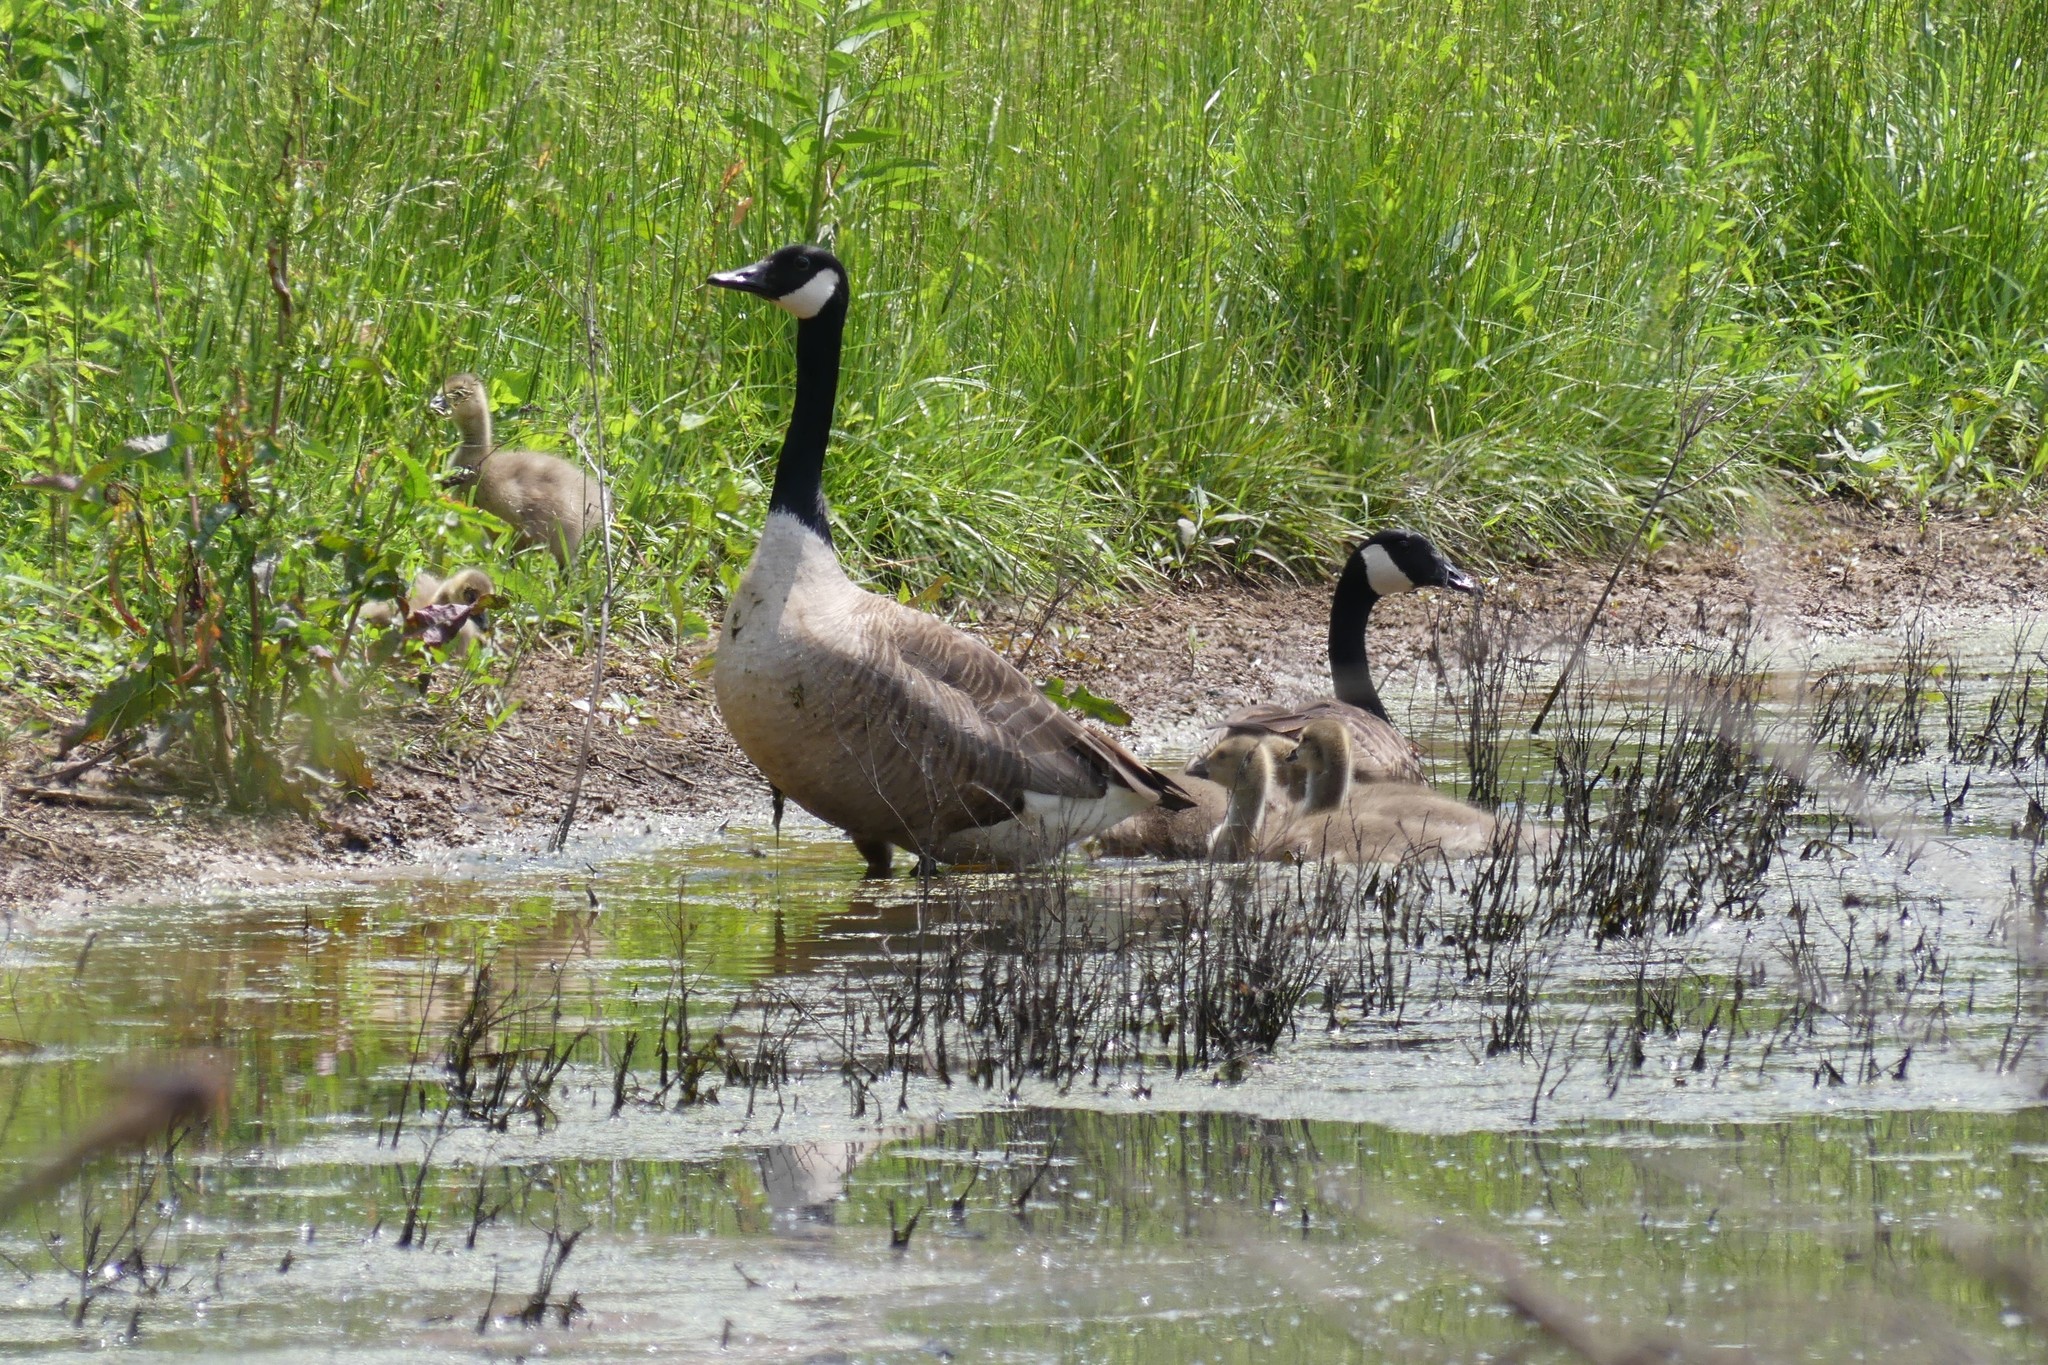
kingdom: Animalia
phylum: Chordata
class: Aves
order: Anseriformes
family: Anatidae
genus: Branta
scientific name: Branta canadensis
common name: Canada goose
